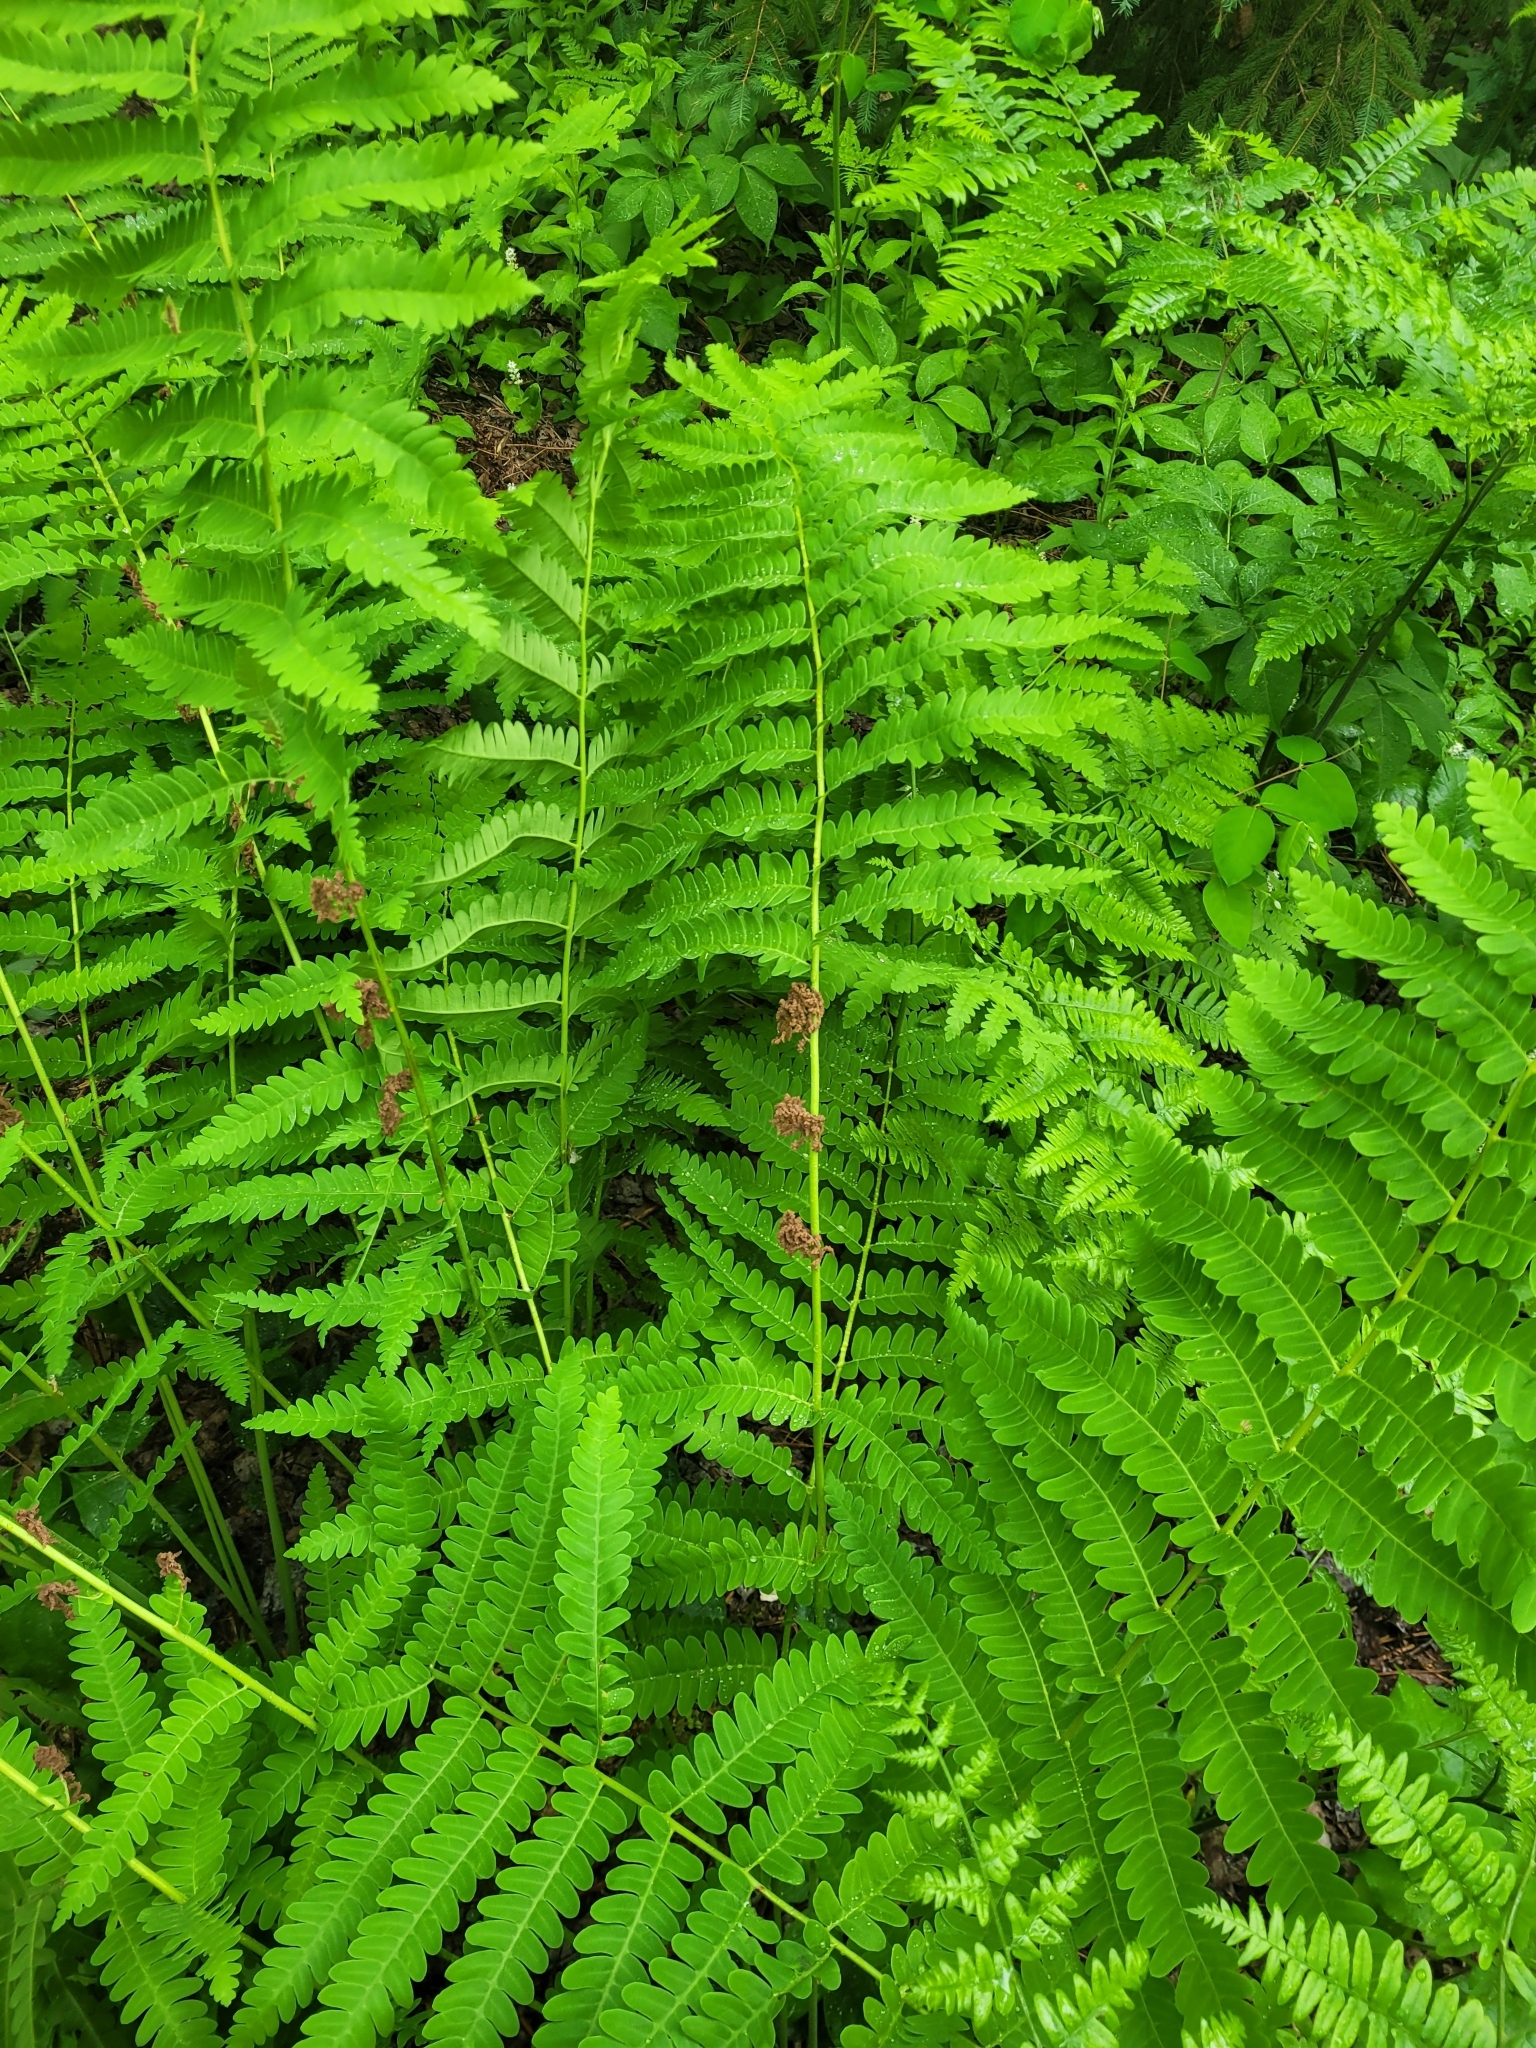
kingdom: Plantae
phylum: Tracheophyta
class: Polypodiopsida
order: Osmundales
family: Osmundaceae
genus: Claytosmunda
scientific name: Claytosmunda claytoniana
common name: Clayton's fern
